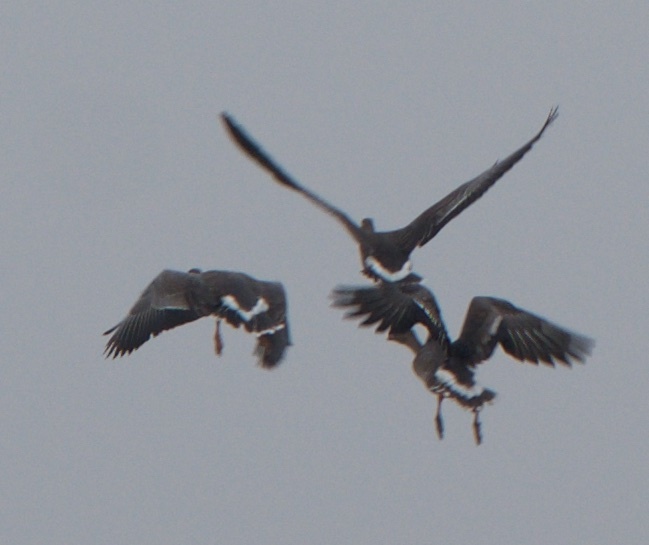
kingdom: Animalia
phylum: Chordata
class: Aves
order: Anseriformes
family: Anatidae
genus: Anser
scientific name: Anser albifrons
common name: Greater white-fronted goose
